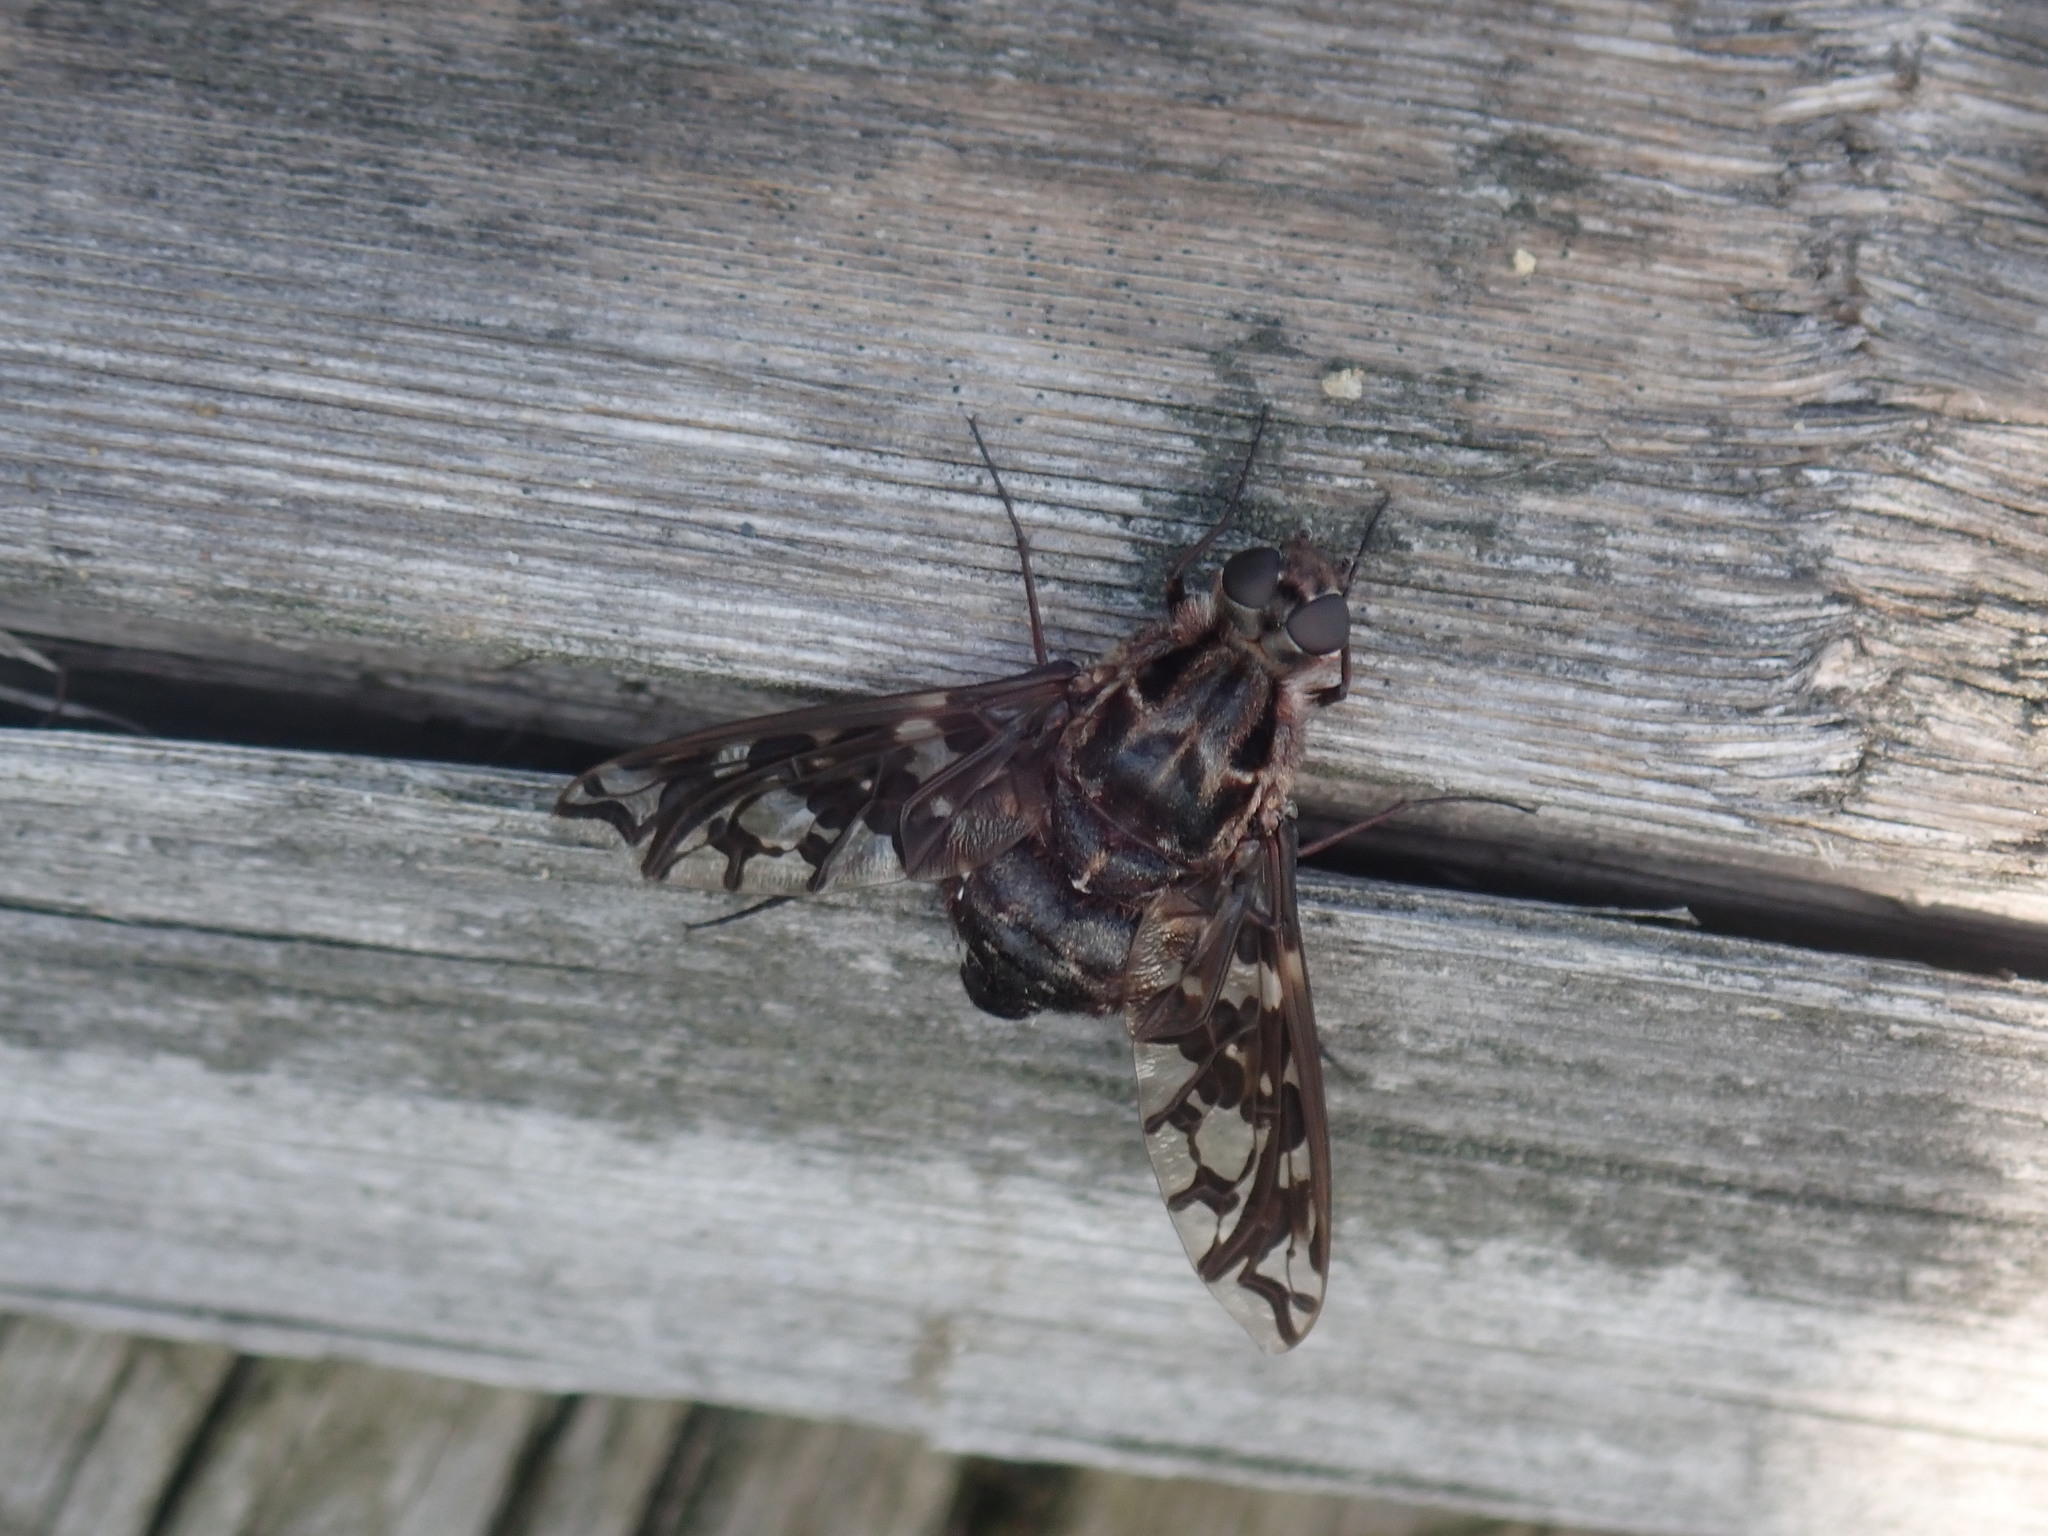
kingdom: Animalia
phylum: Arthropoda
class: Insecta
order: Diptera
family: Bombyliidae
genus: Xenox
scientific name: Xenox tigrinus
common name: Tiger bee fly
